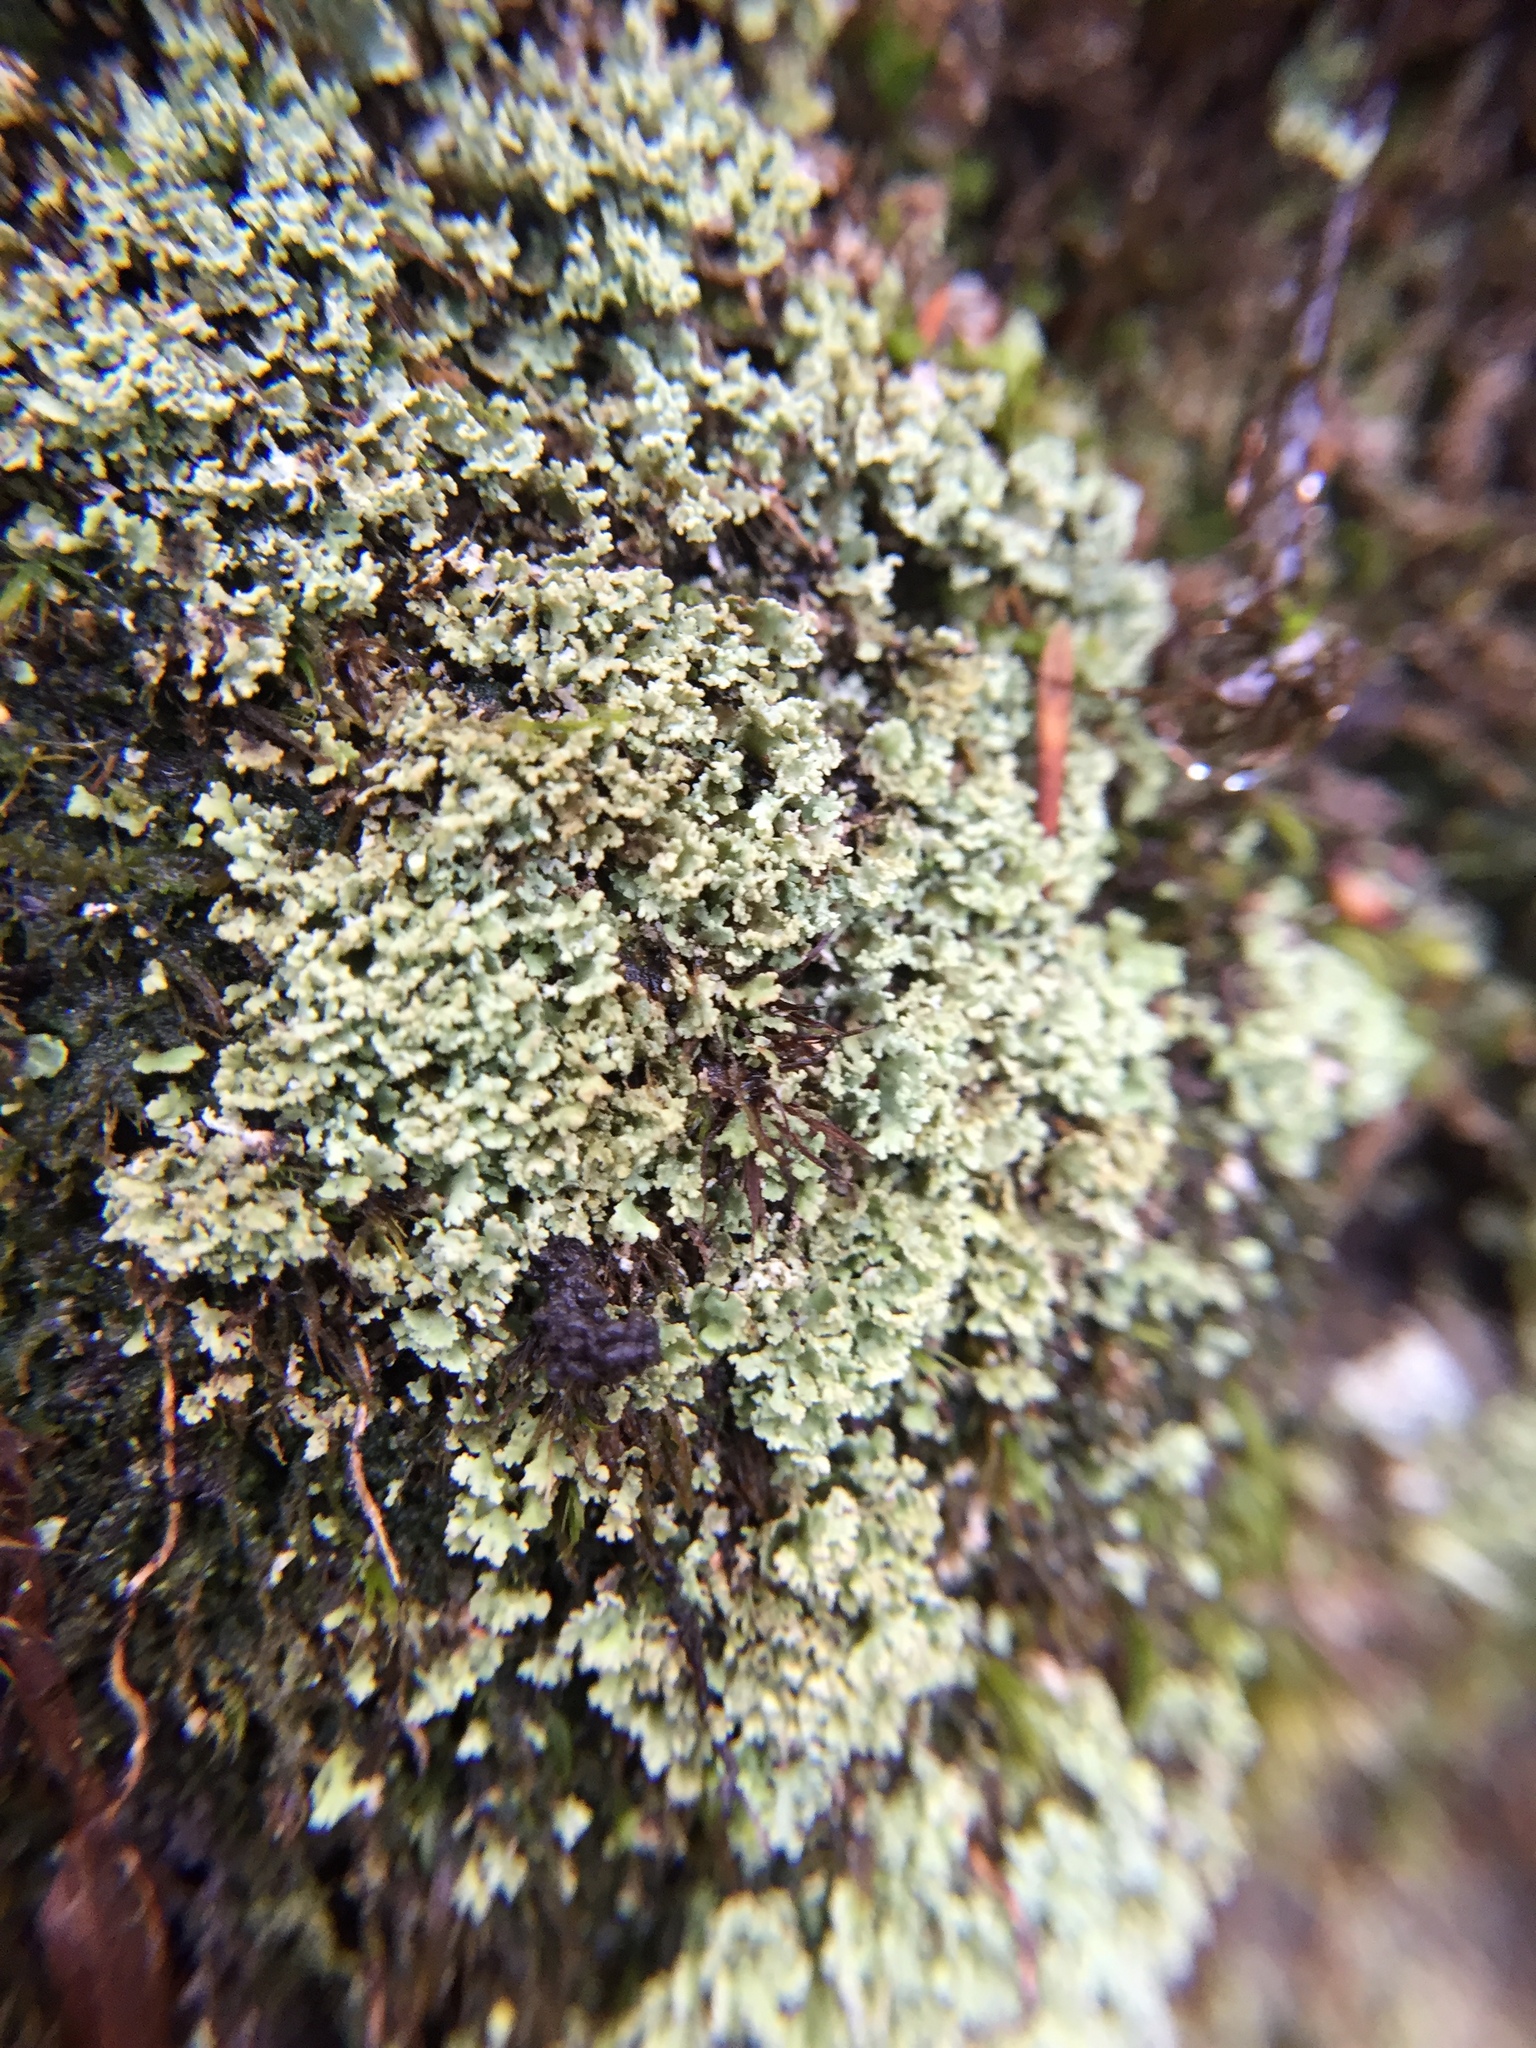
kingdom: Fungi
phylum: Ascomycota
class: Lecanoromycetes
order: Lecanorales
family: Cladoniaceae
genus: Cladonia
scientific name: Cladonia
